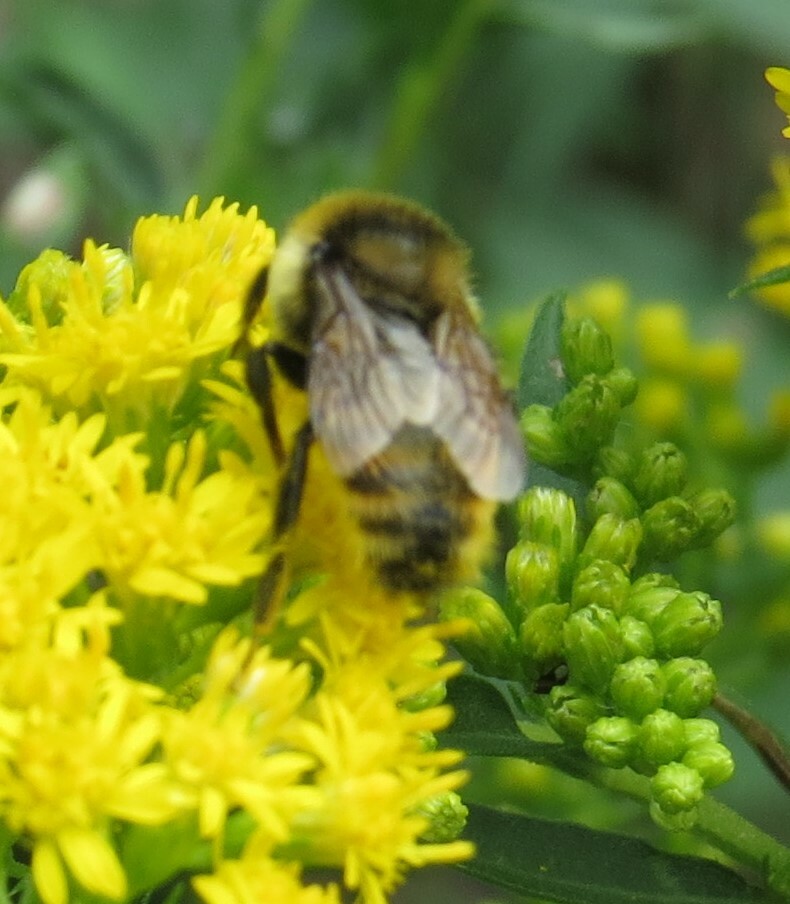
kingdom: Animalia
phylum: Arthropoda
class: Insecta
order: Hymenoptera
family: Apidae
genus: Bombus
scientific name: Bombus rufocinctus
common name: Red-belted bumble bee
